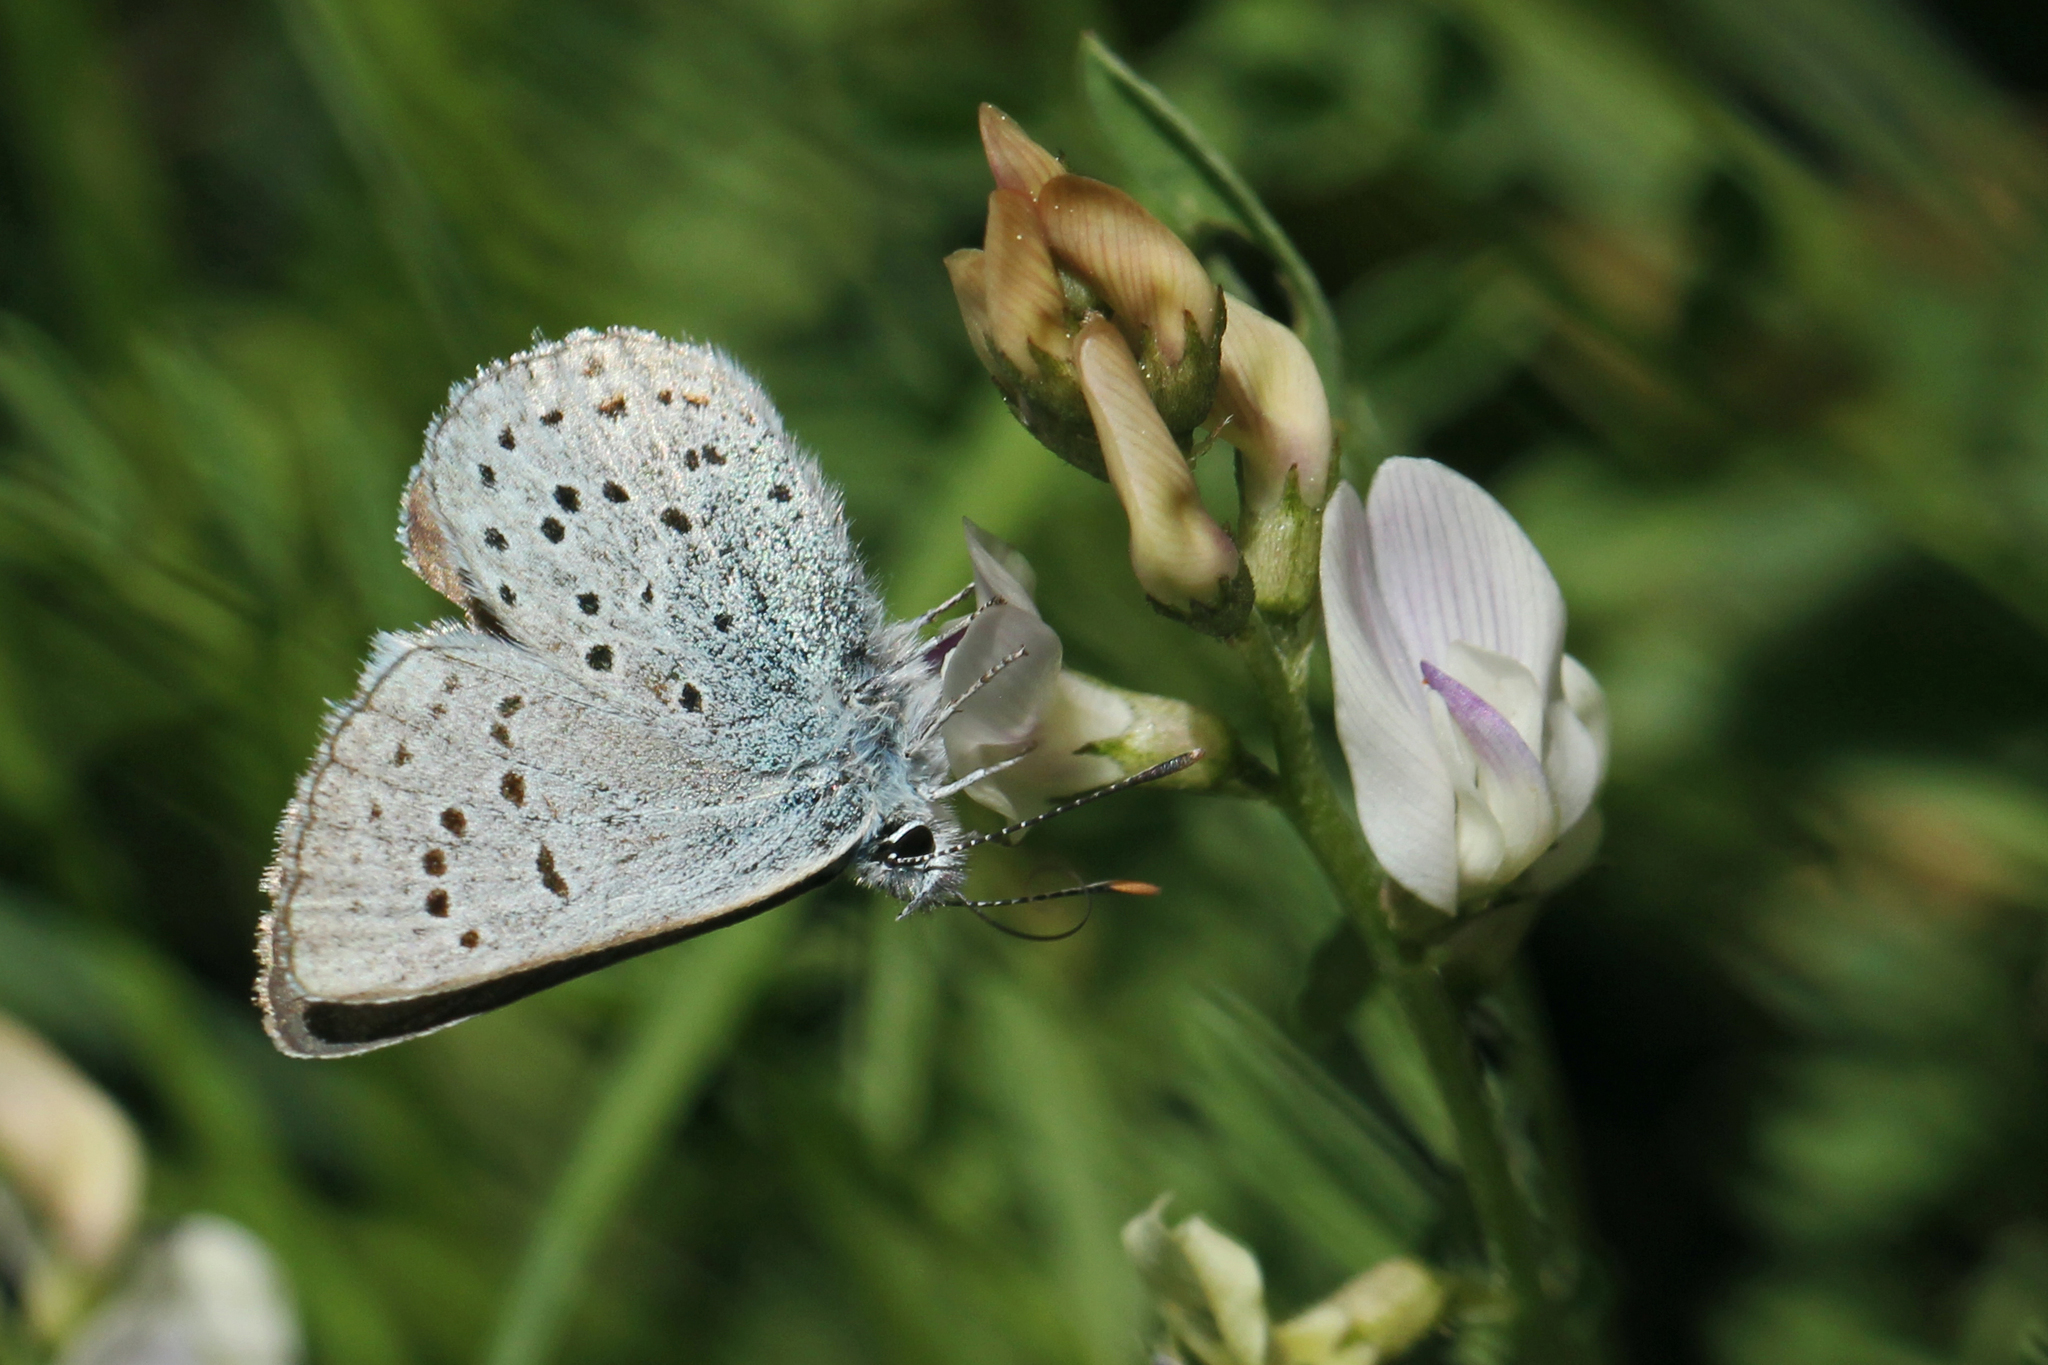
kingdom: Animalia
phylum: Arthropoda
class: Insecta
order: Lepidoptera
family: Lycaenidae
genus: Icaricia
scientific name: Icaricia saepiolus
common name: Greenish blue
